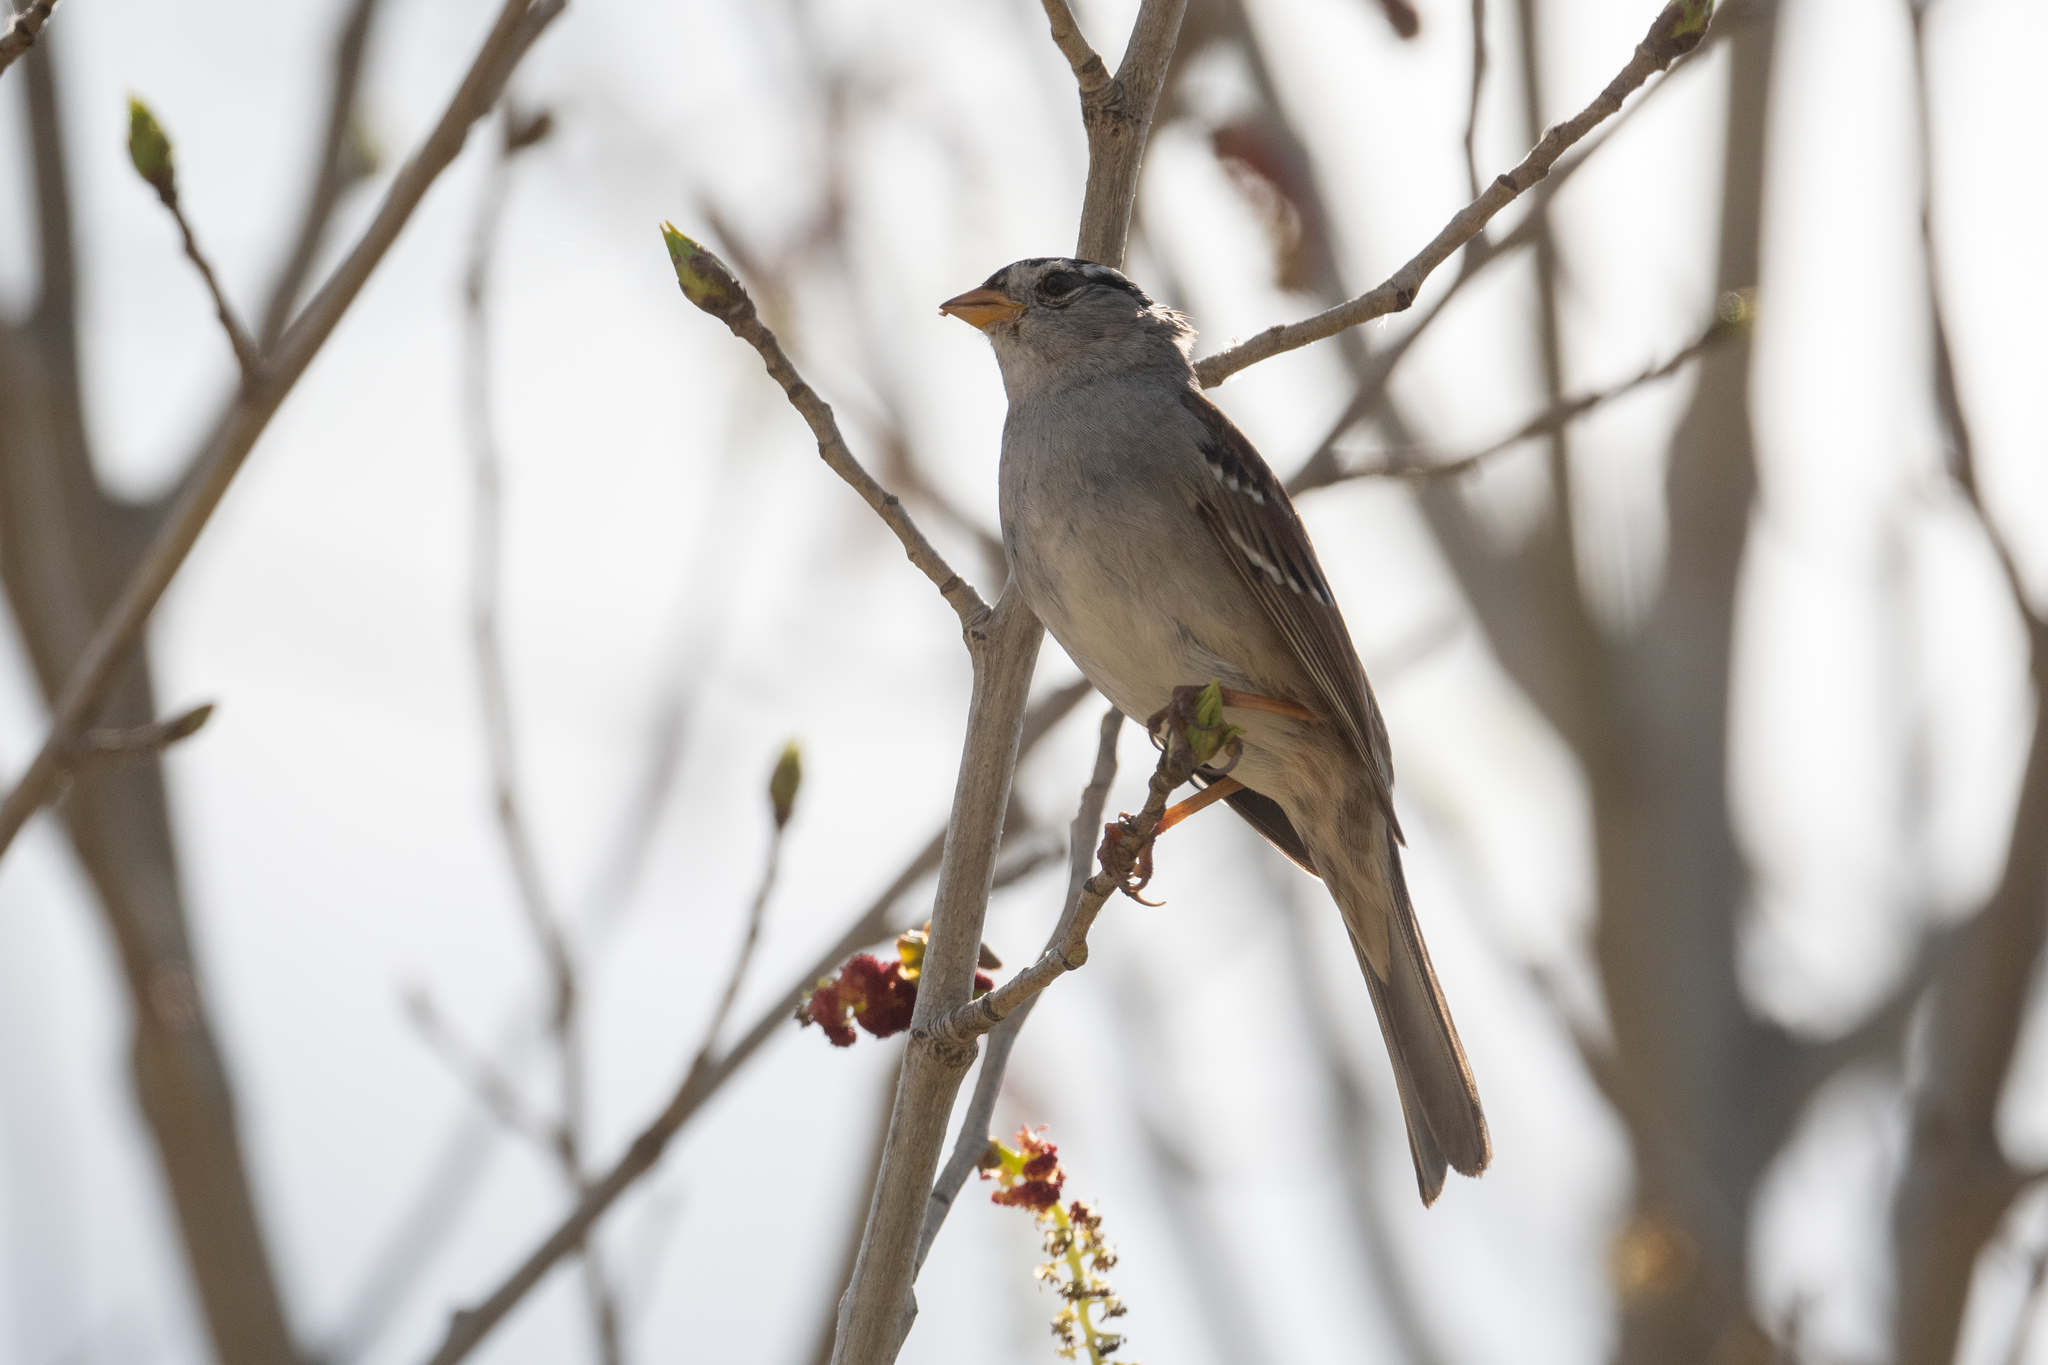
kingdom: Animalia
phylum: Chordata
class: Aves
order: Passeriformes
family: Passerellidae
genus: Zonotrichia
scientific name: Zonotrichia leucophrys
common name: White-crowned sparrow
